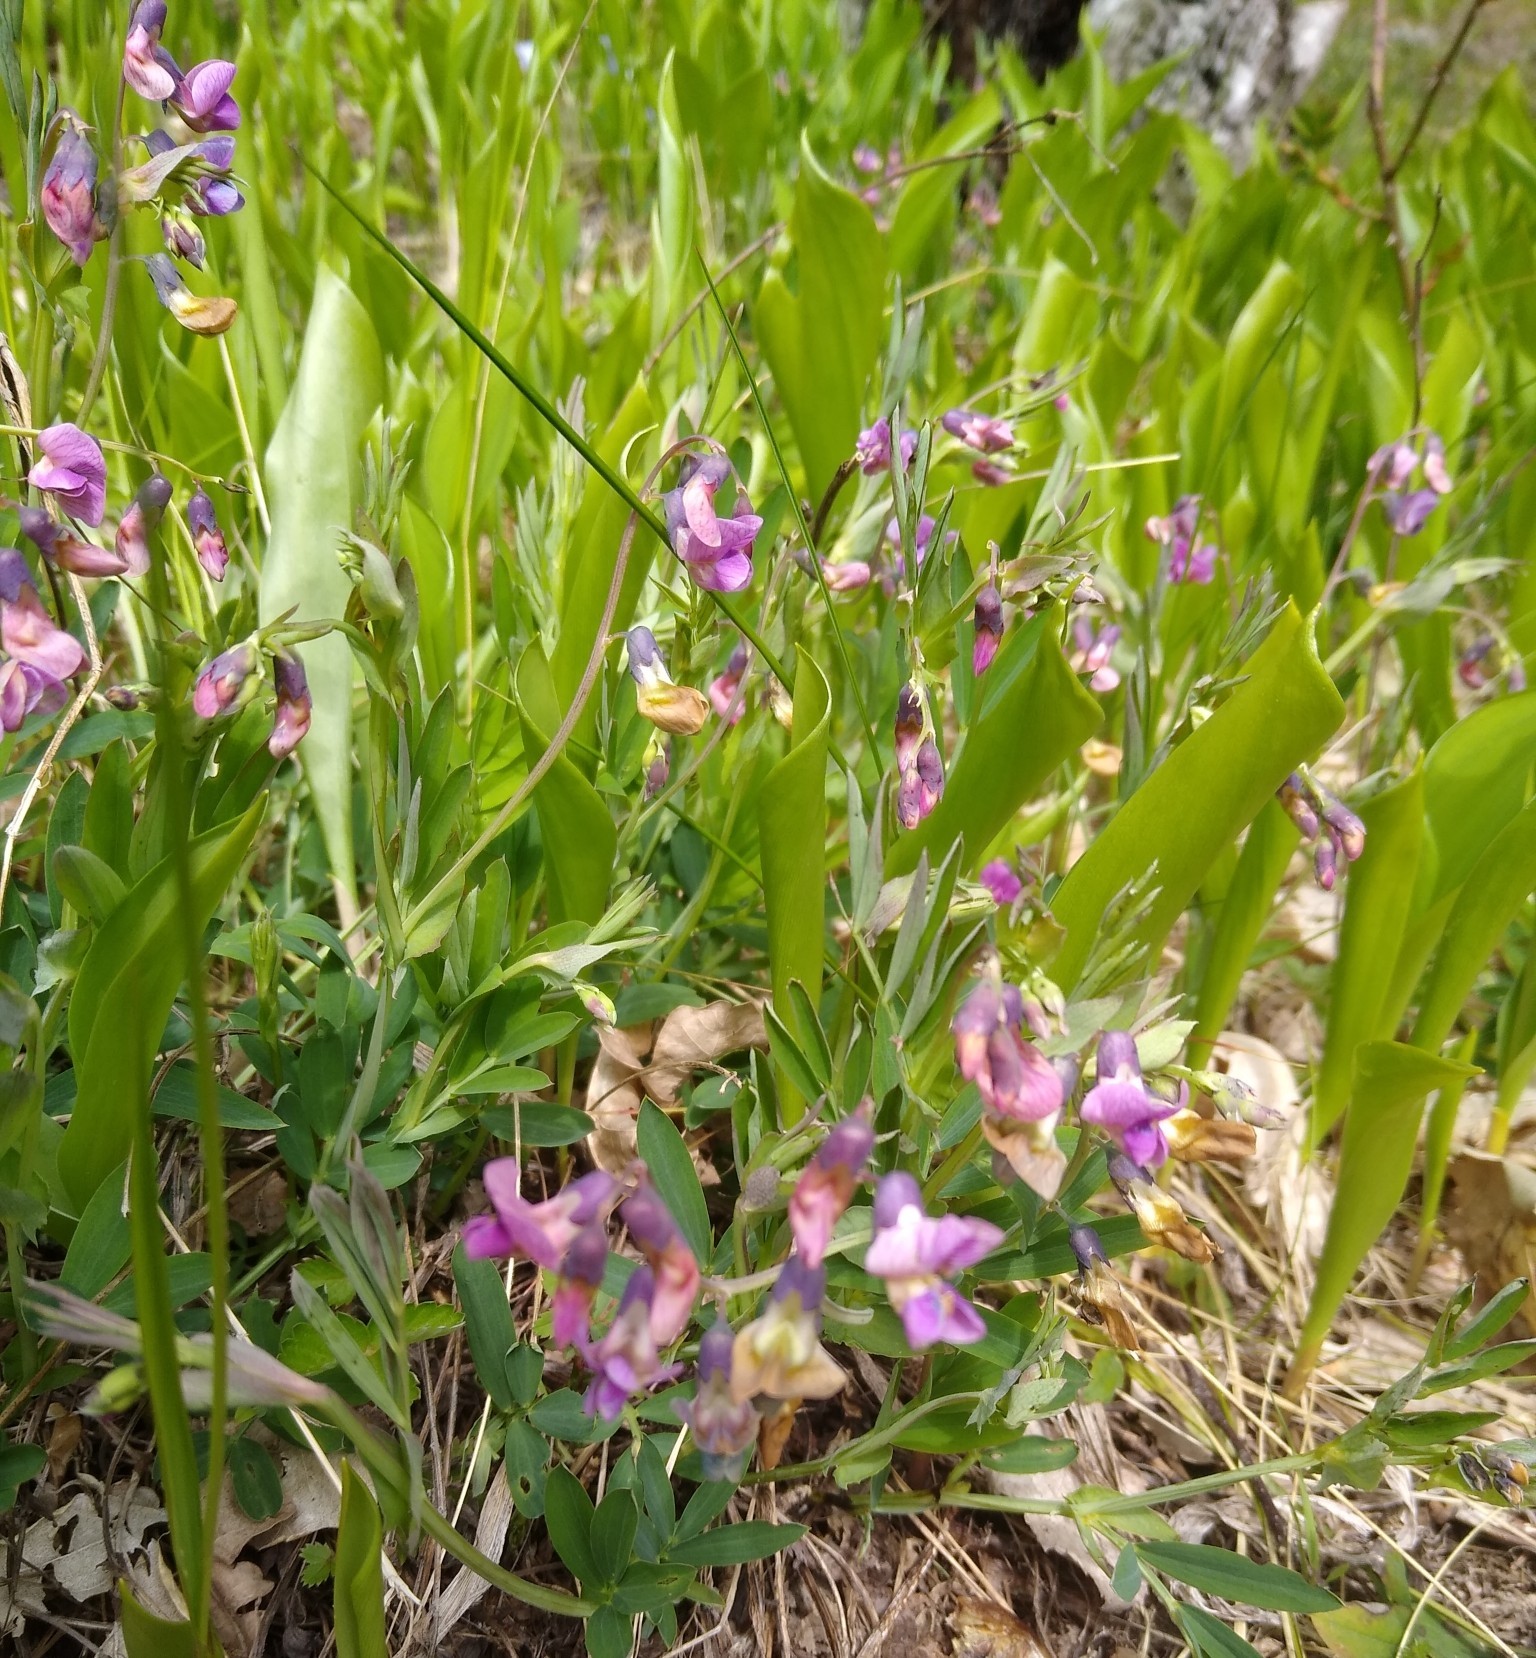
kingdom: Plantae
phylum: Tracheophyta
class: Magnoliopsida
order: Fabales
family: Fabaceae
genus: Lathyrus
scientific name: Lathyrus linifolius
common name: Bitter-vetch
